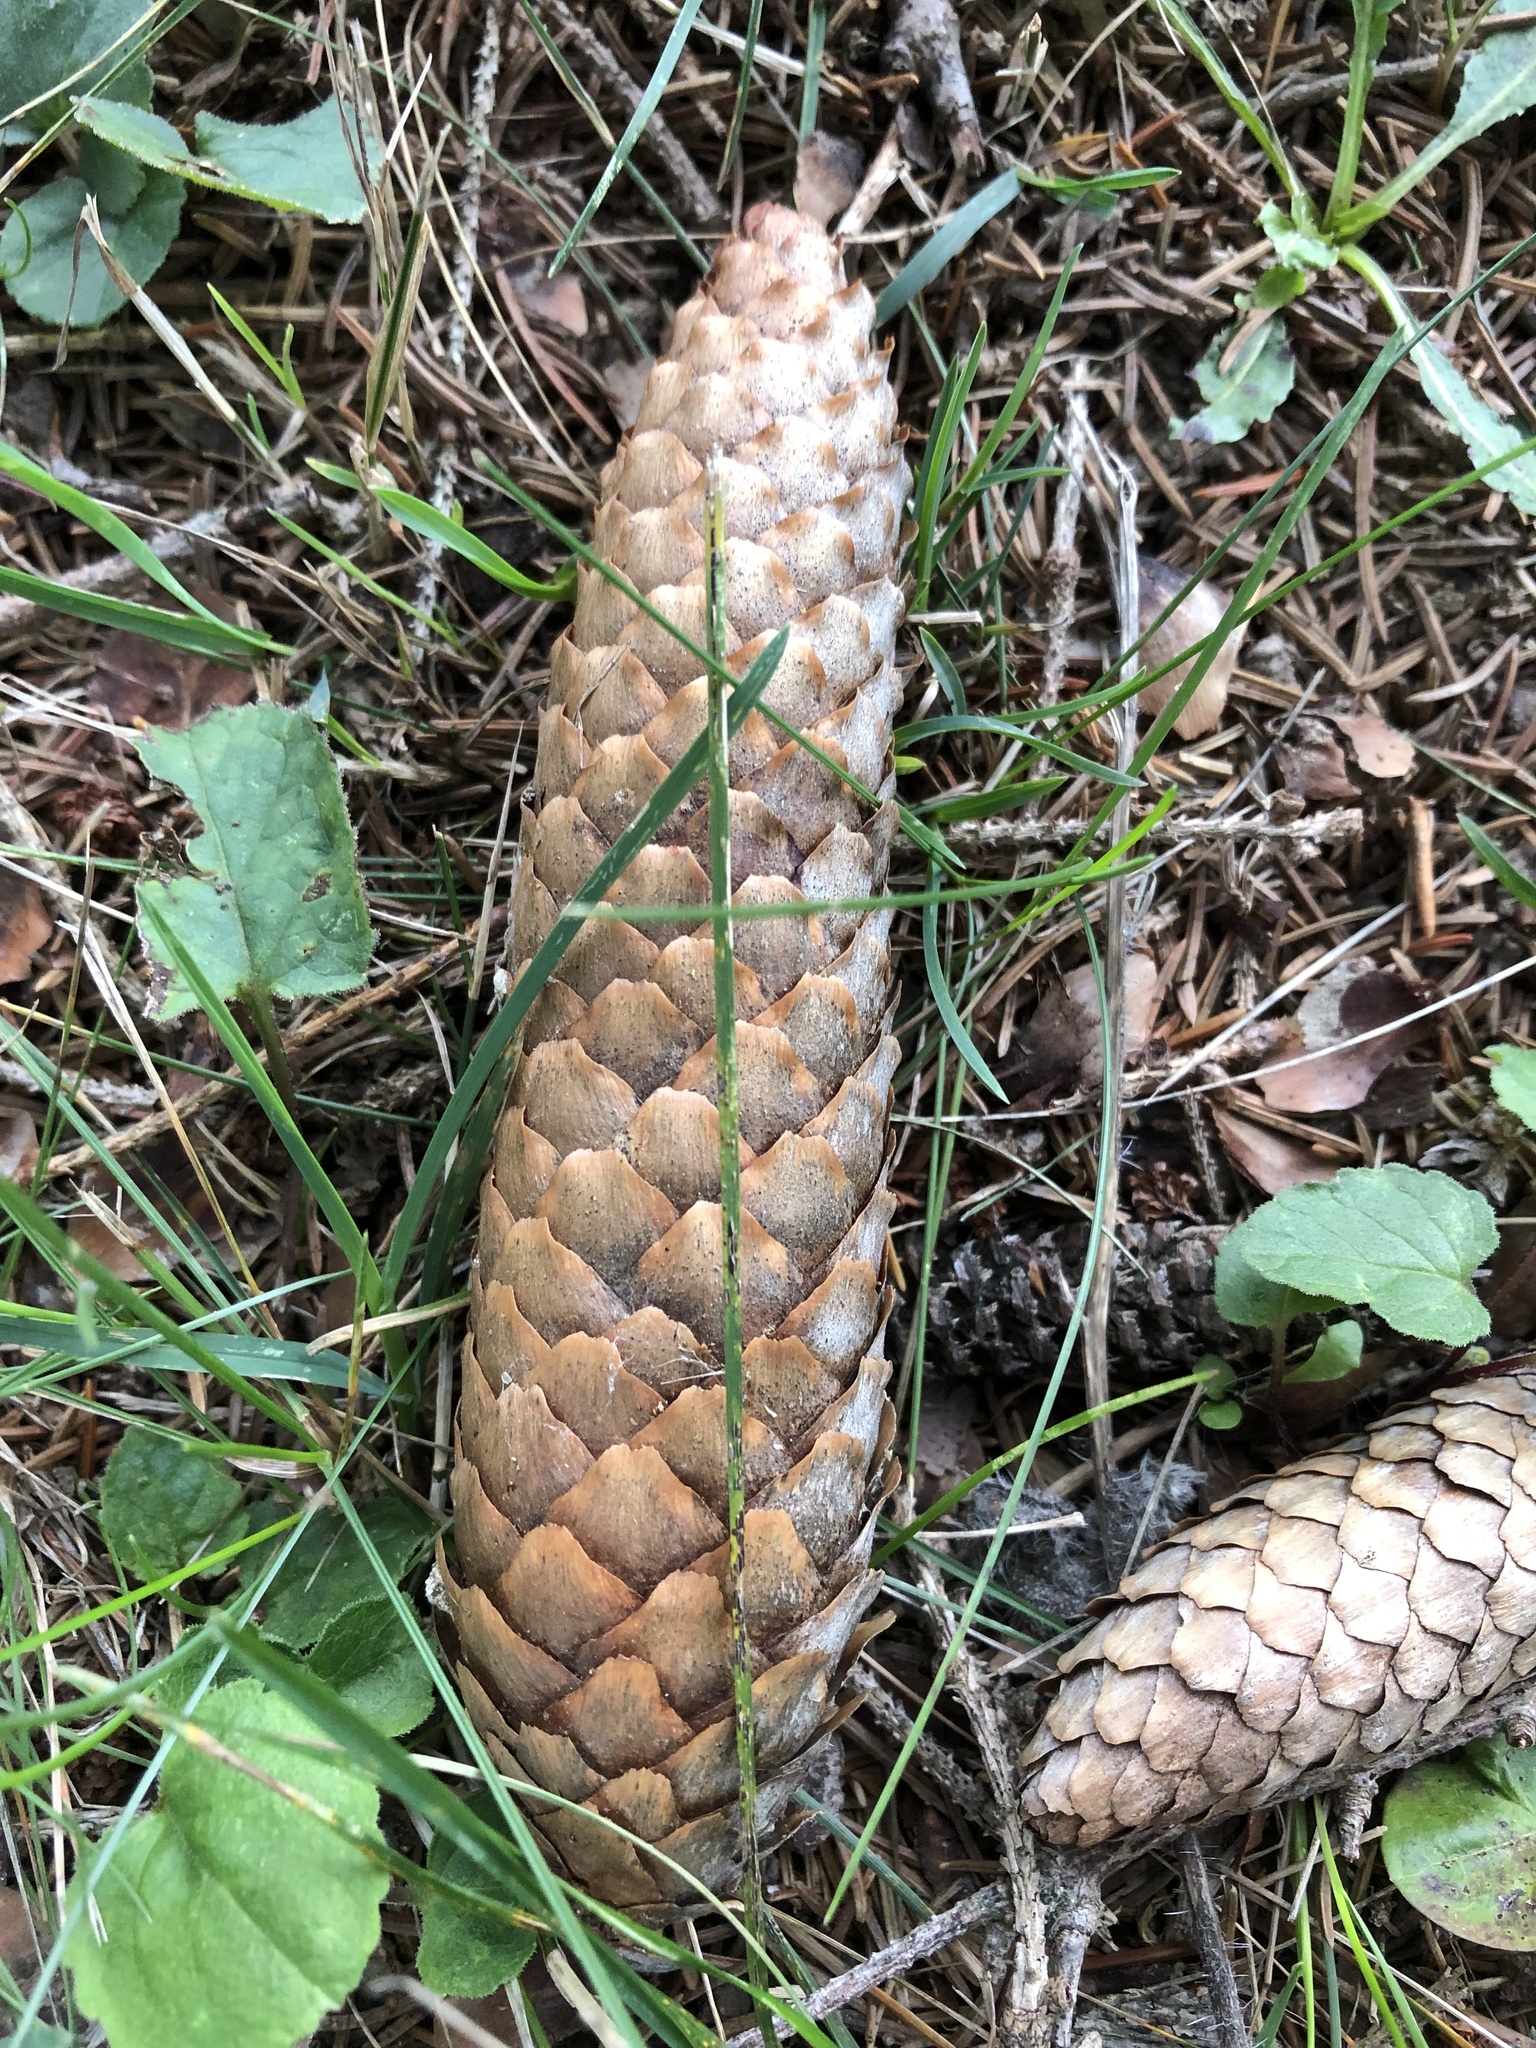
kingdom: Plantae
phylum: Tracheophyta
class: Pinopsida
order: Pinales
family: Pinaceae
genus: Picea
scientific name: Picea abies
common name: Norway spruce
